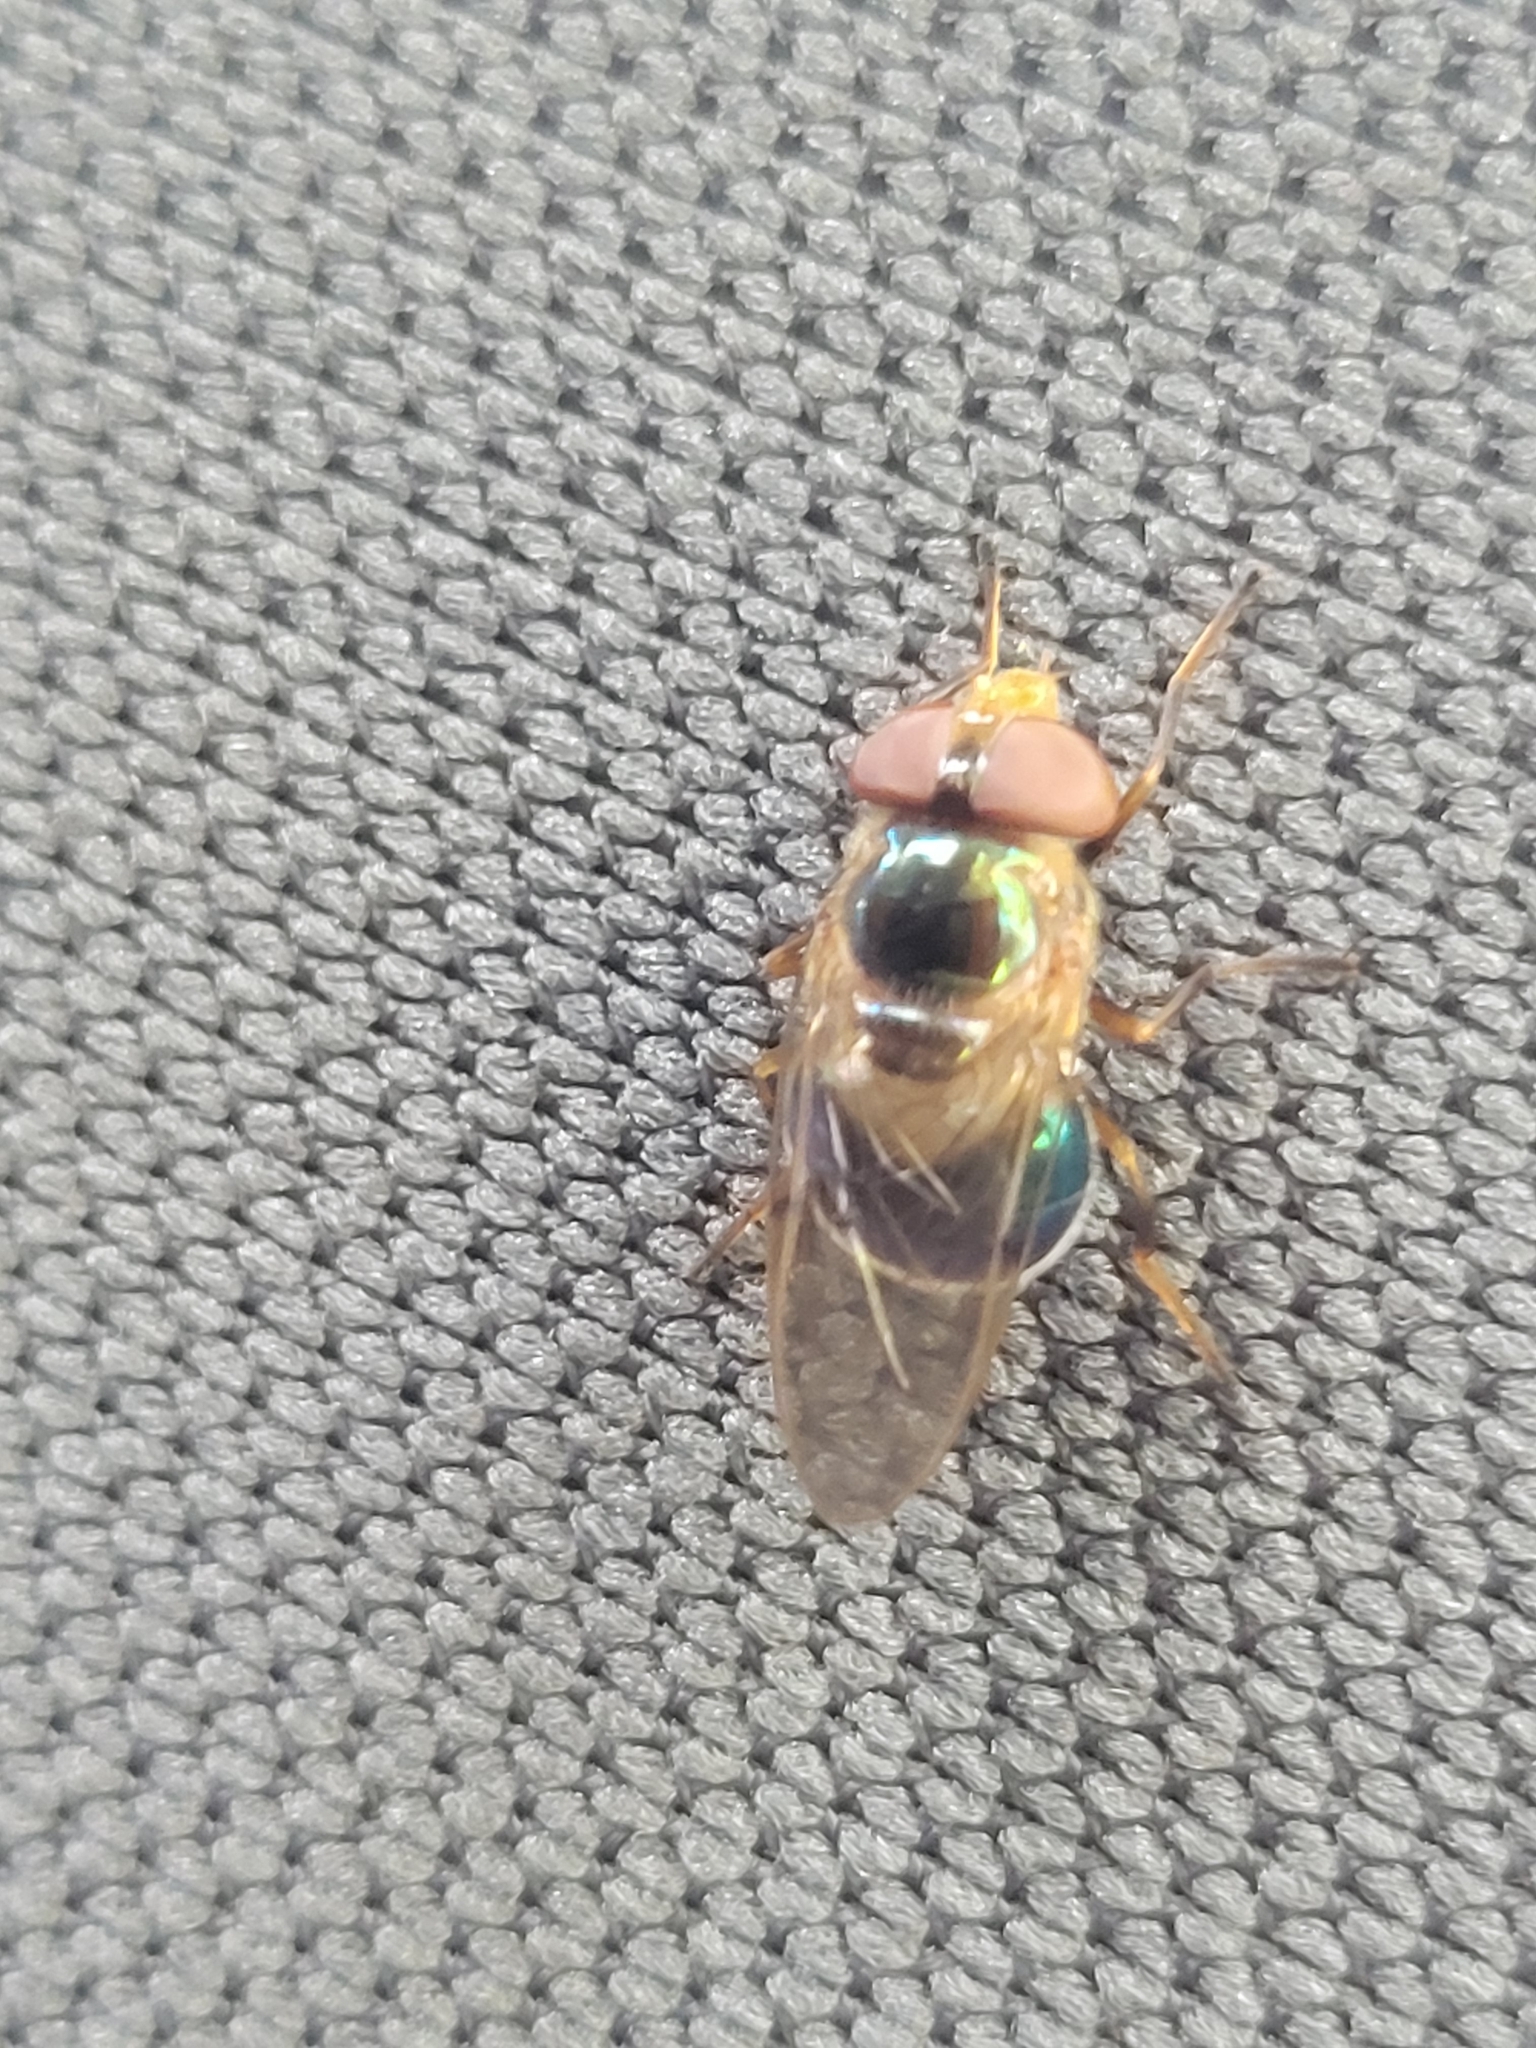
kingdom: Animalia
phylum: Arthropoda
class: Insecta
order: Diptera
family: Syrphidae
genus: Copestylum
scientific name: Copestylum vesicularium
